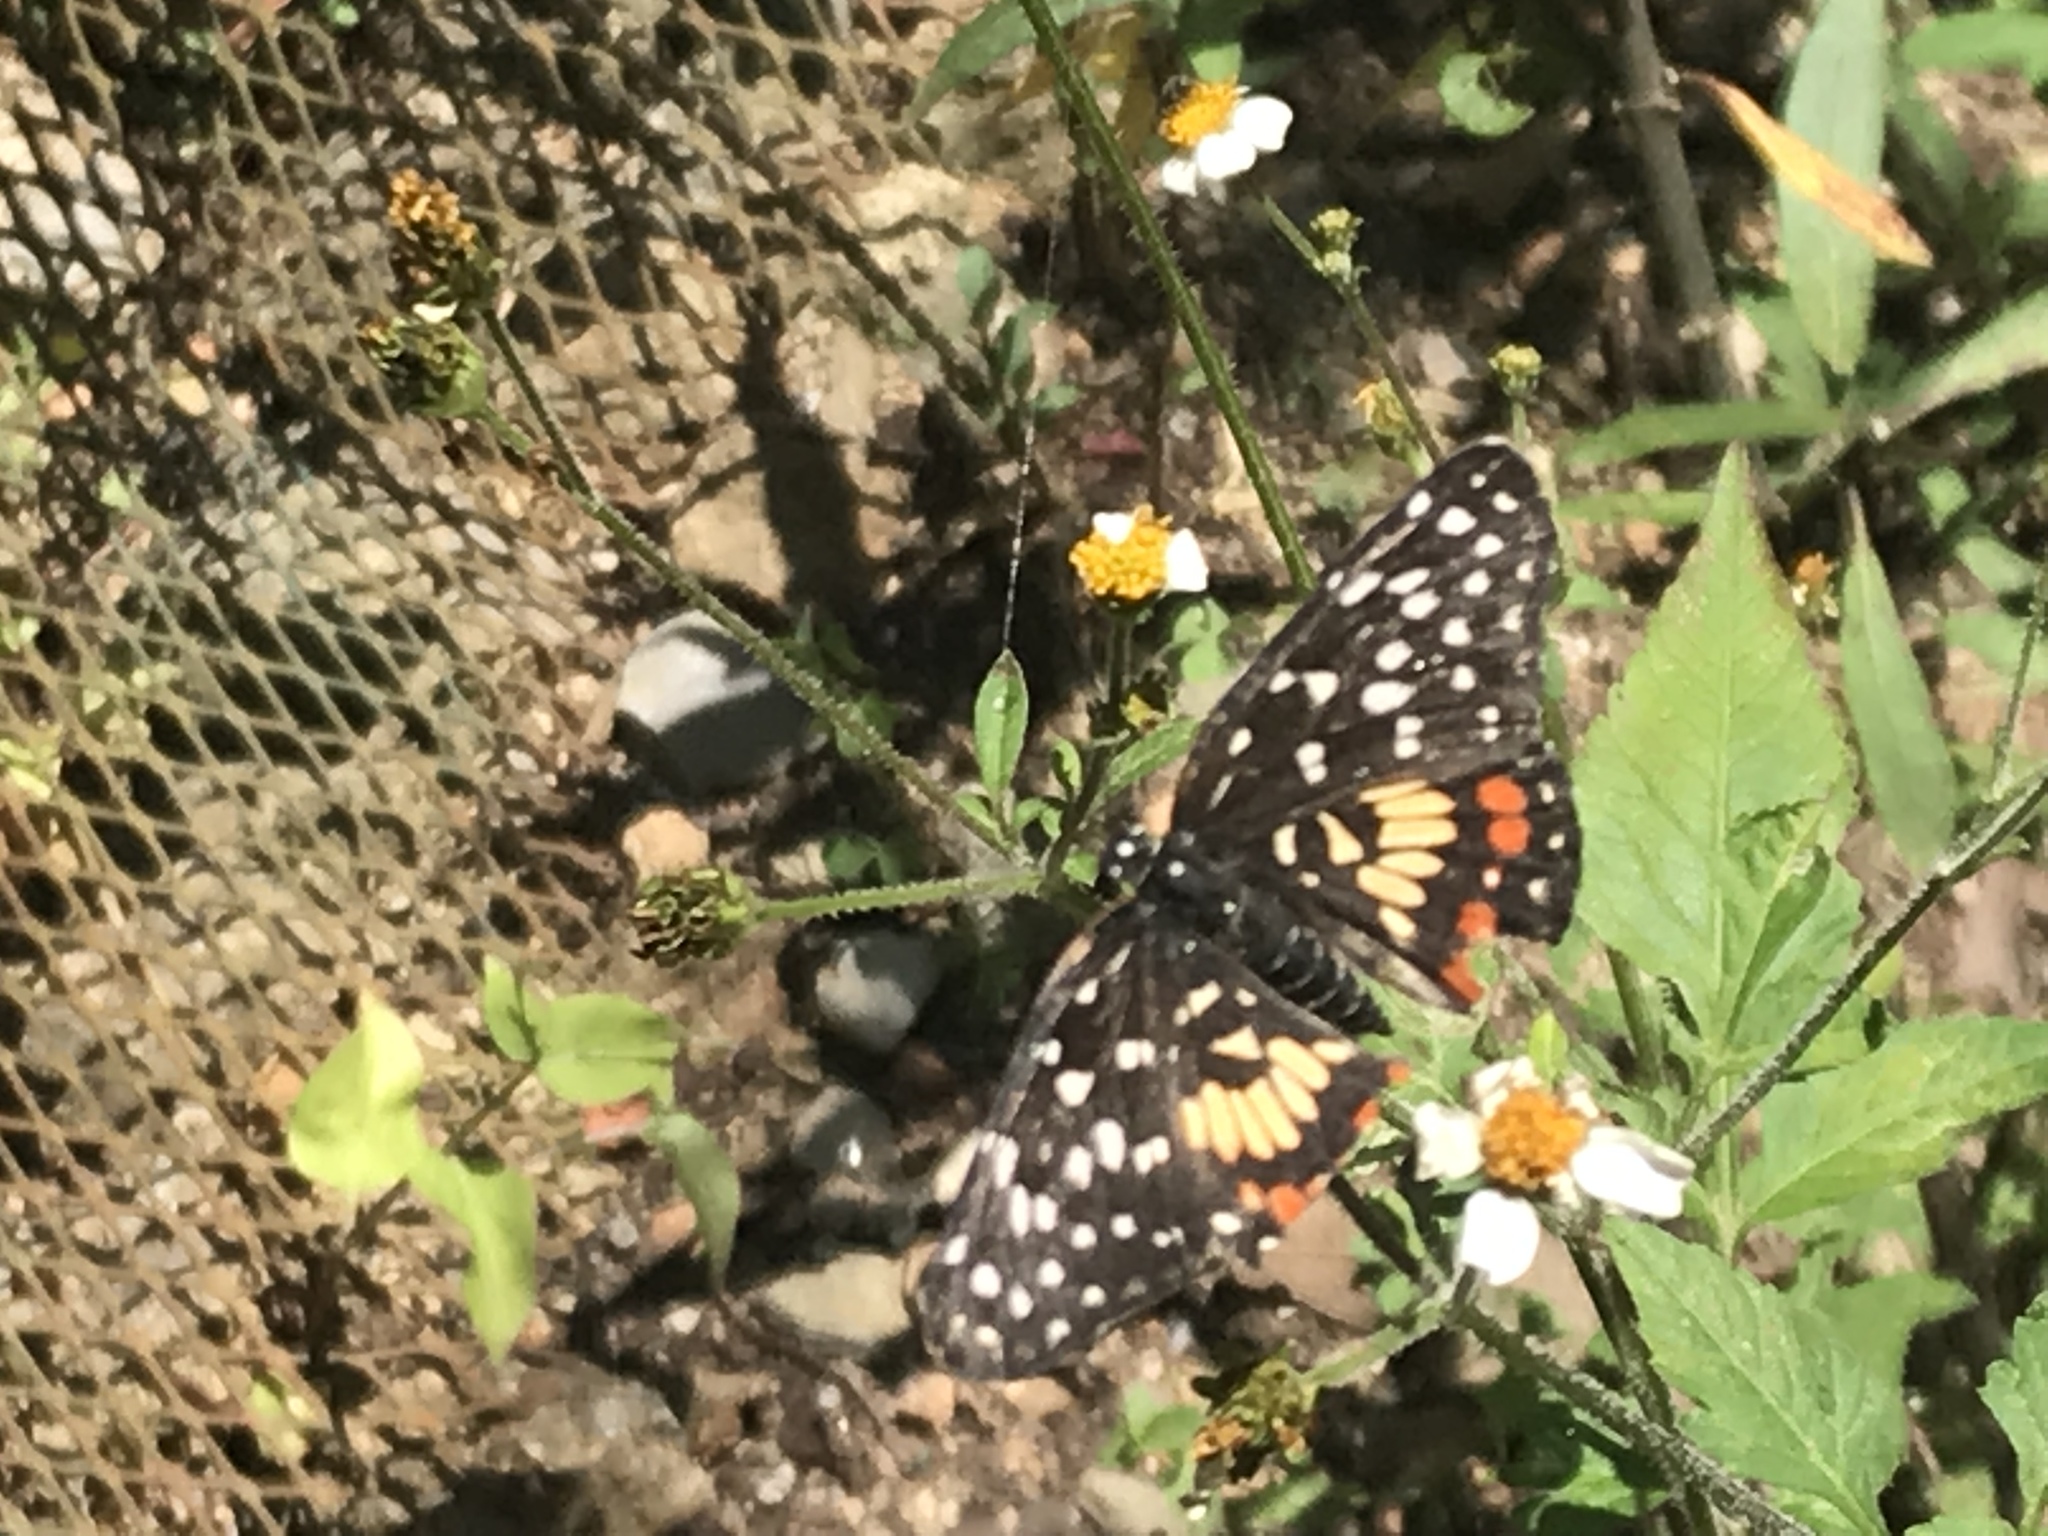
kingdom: Animalia
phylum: Arthropoda
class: Insecta
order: Lepidoptera
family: Nymphalidae
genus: Chlosyne
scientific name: Chlosyne marina
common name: Red-spotted patch
